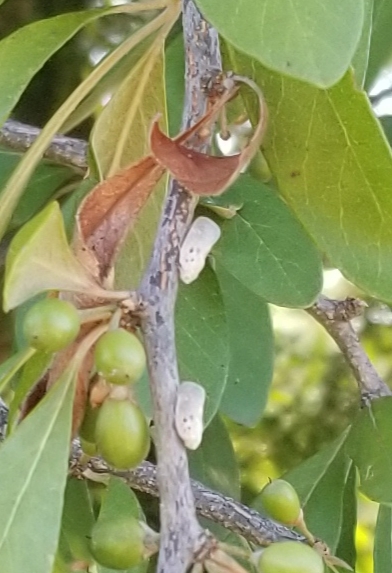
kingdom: Animalia
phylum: Arthropoda
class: Insecta
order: Hemiptera
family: Flatidae
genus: Metcalfa
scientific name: Metcalfa pruinosa
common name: Citrus flatid planthopper
